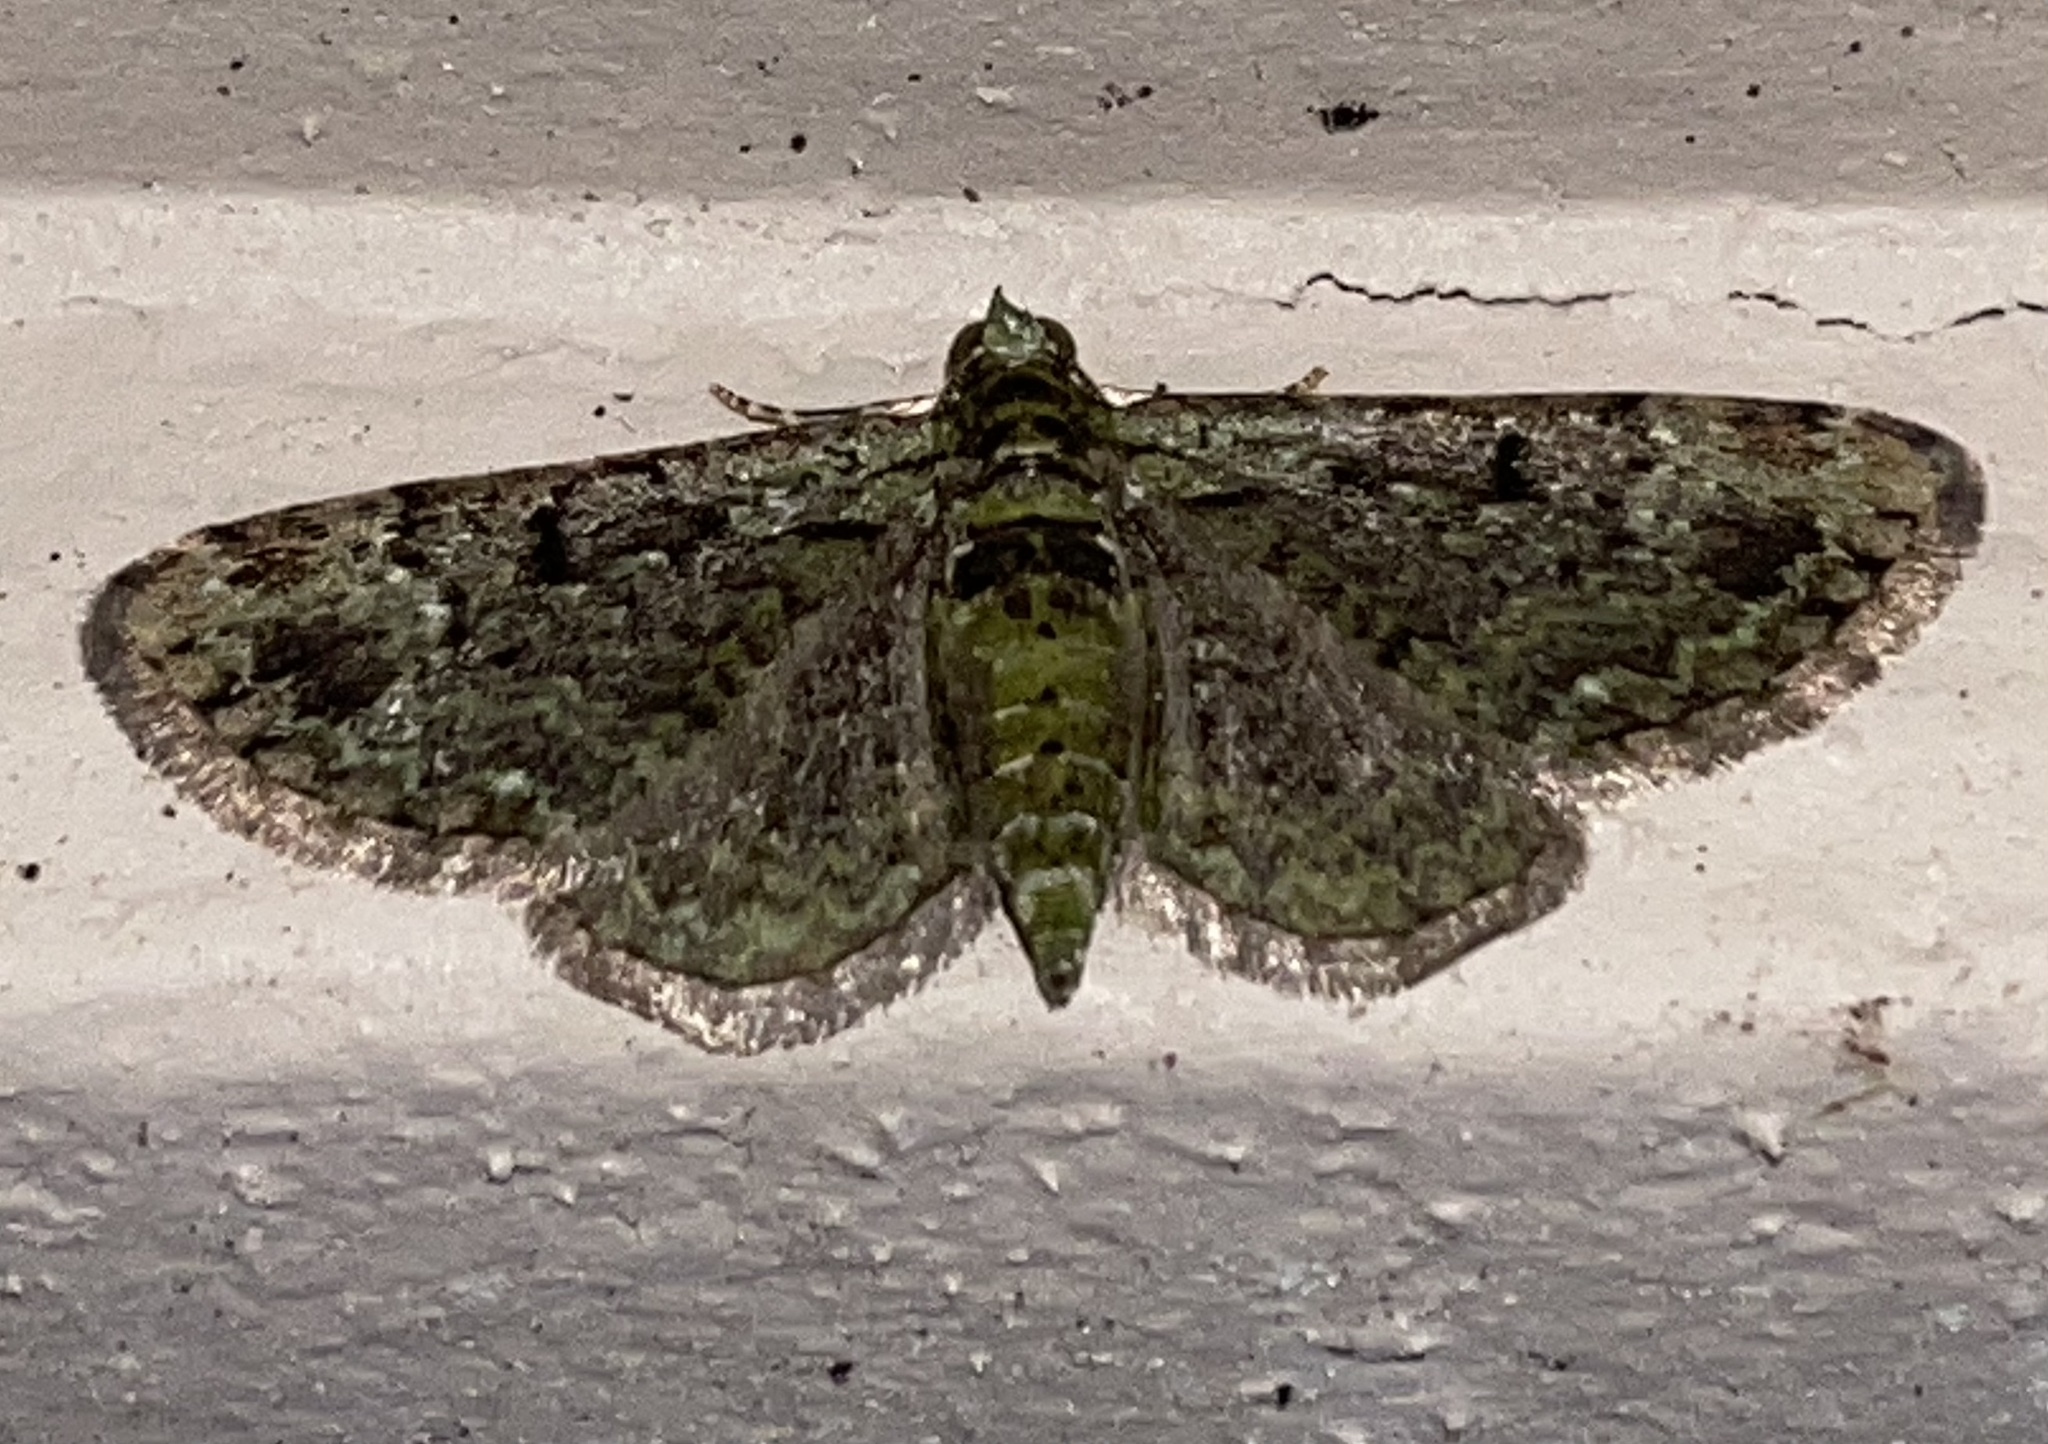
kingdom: Animalia
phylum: Arthropoda
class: Insecta
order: Lepidoptera
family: Geometridae
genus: Pasiphila
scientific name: Pasiphila rectangulata
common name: Green pug
